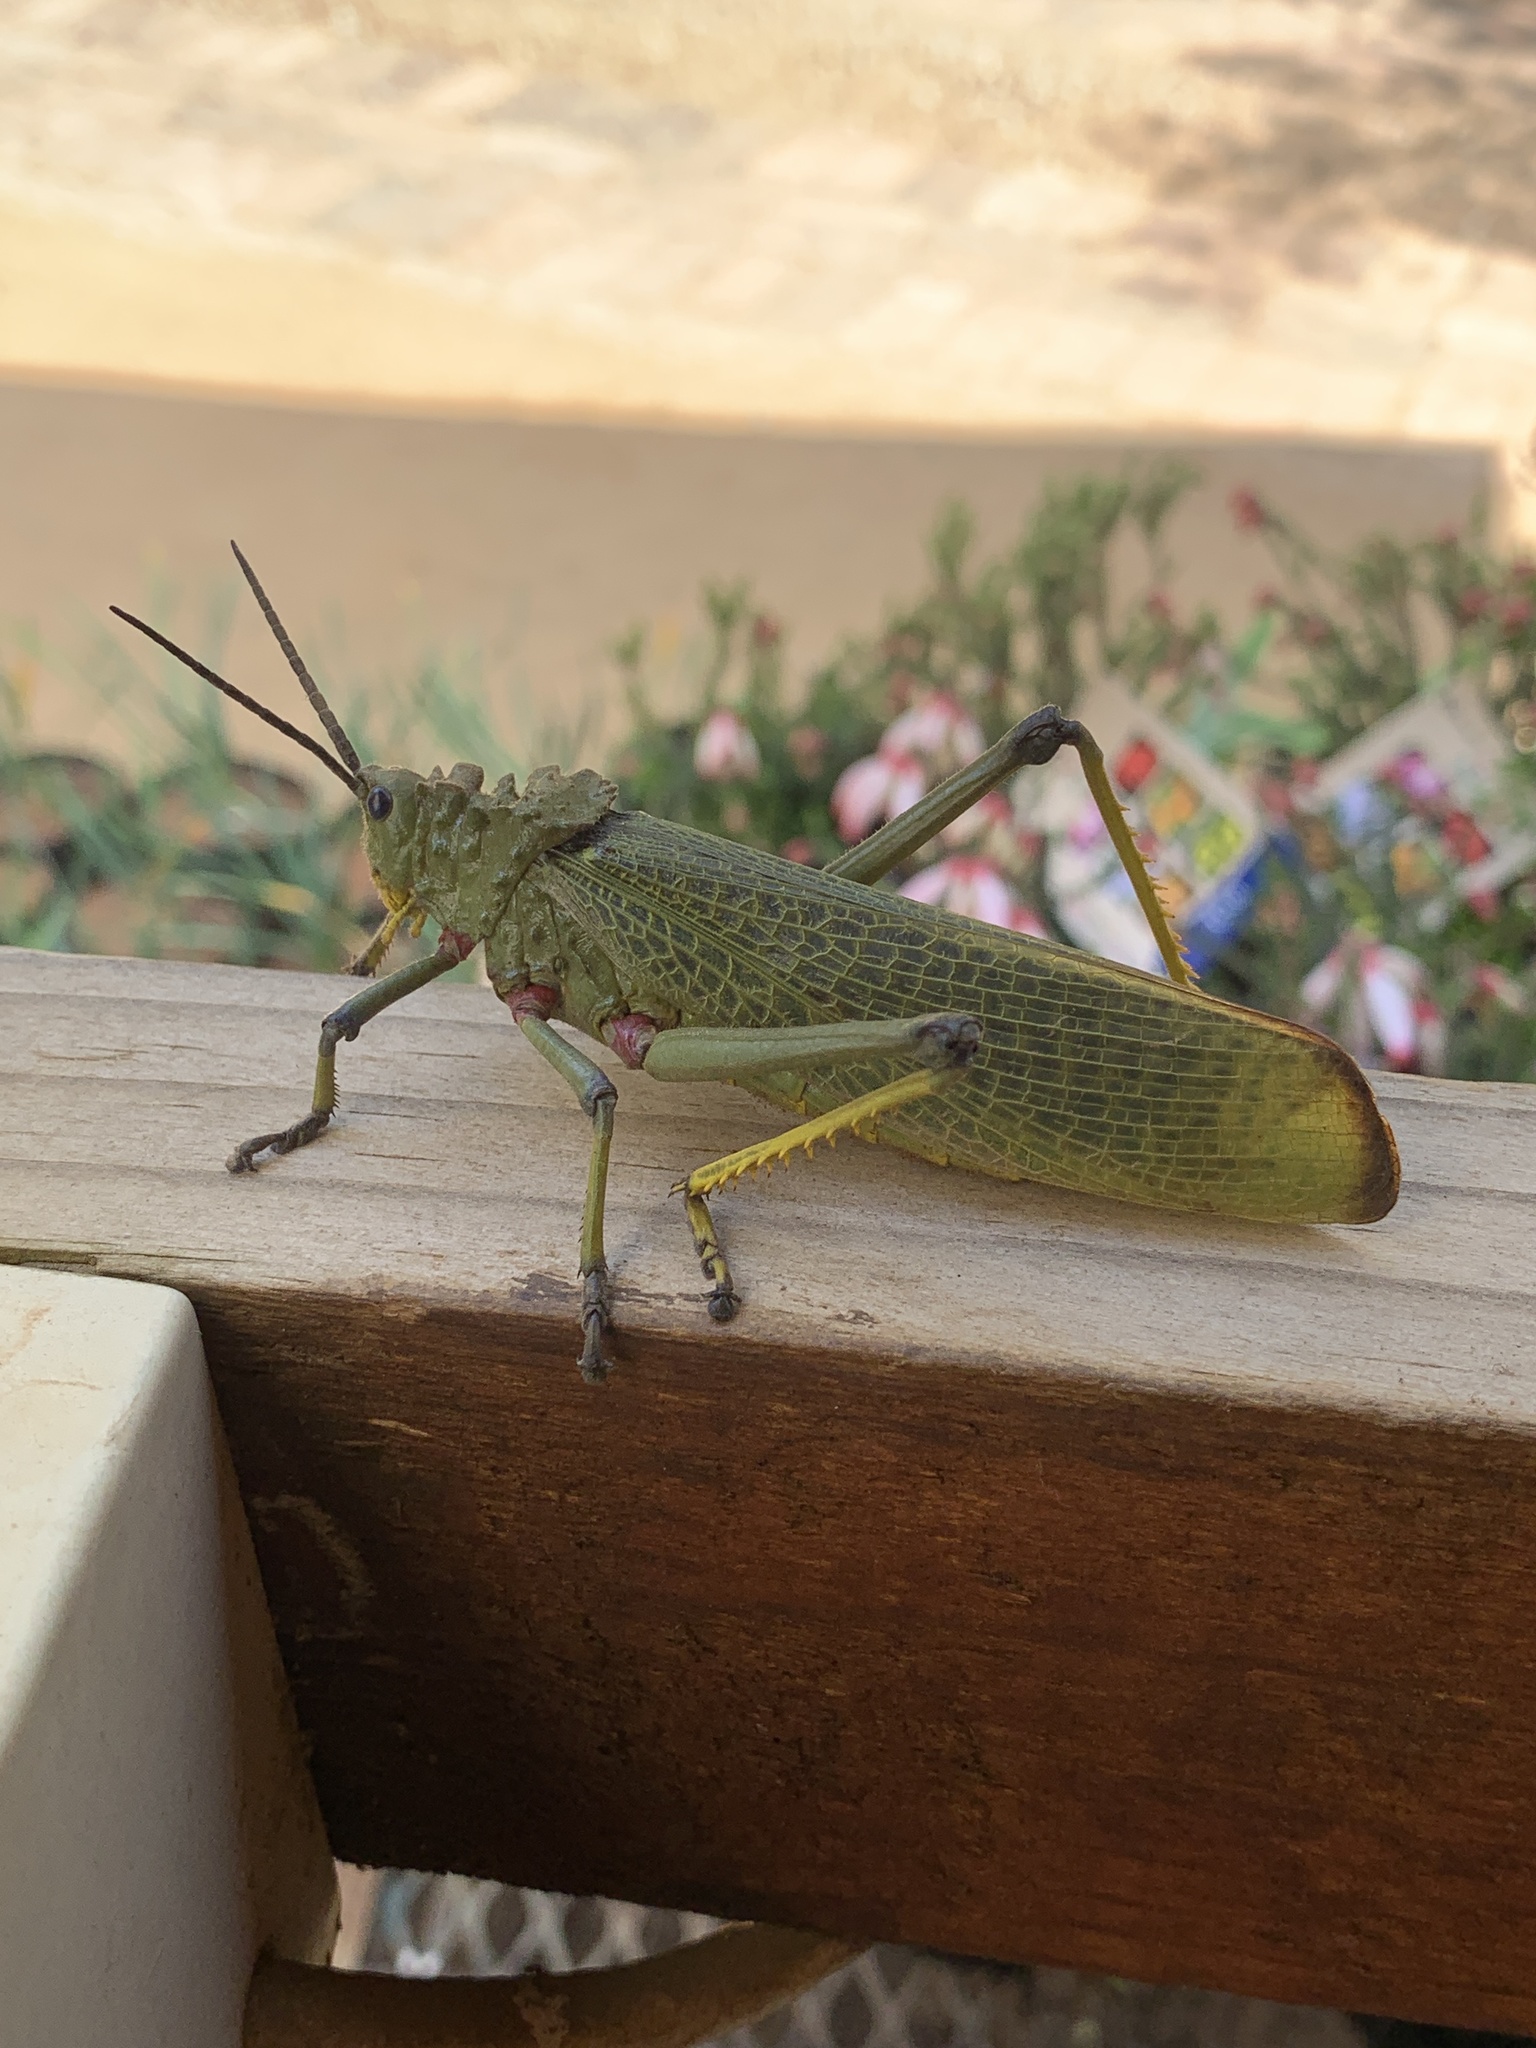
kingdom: Animalia
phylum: Arthropoda
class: Insecta
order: Orthoptera
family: Pyrgomorphidae
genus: Phymateus
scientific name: Phymateus viridipes
